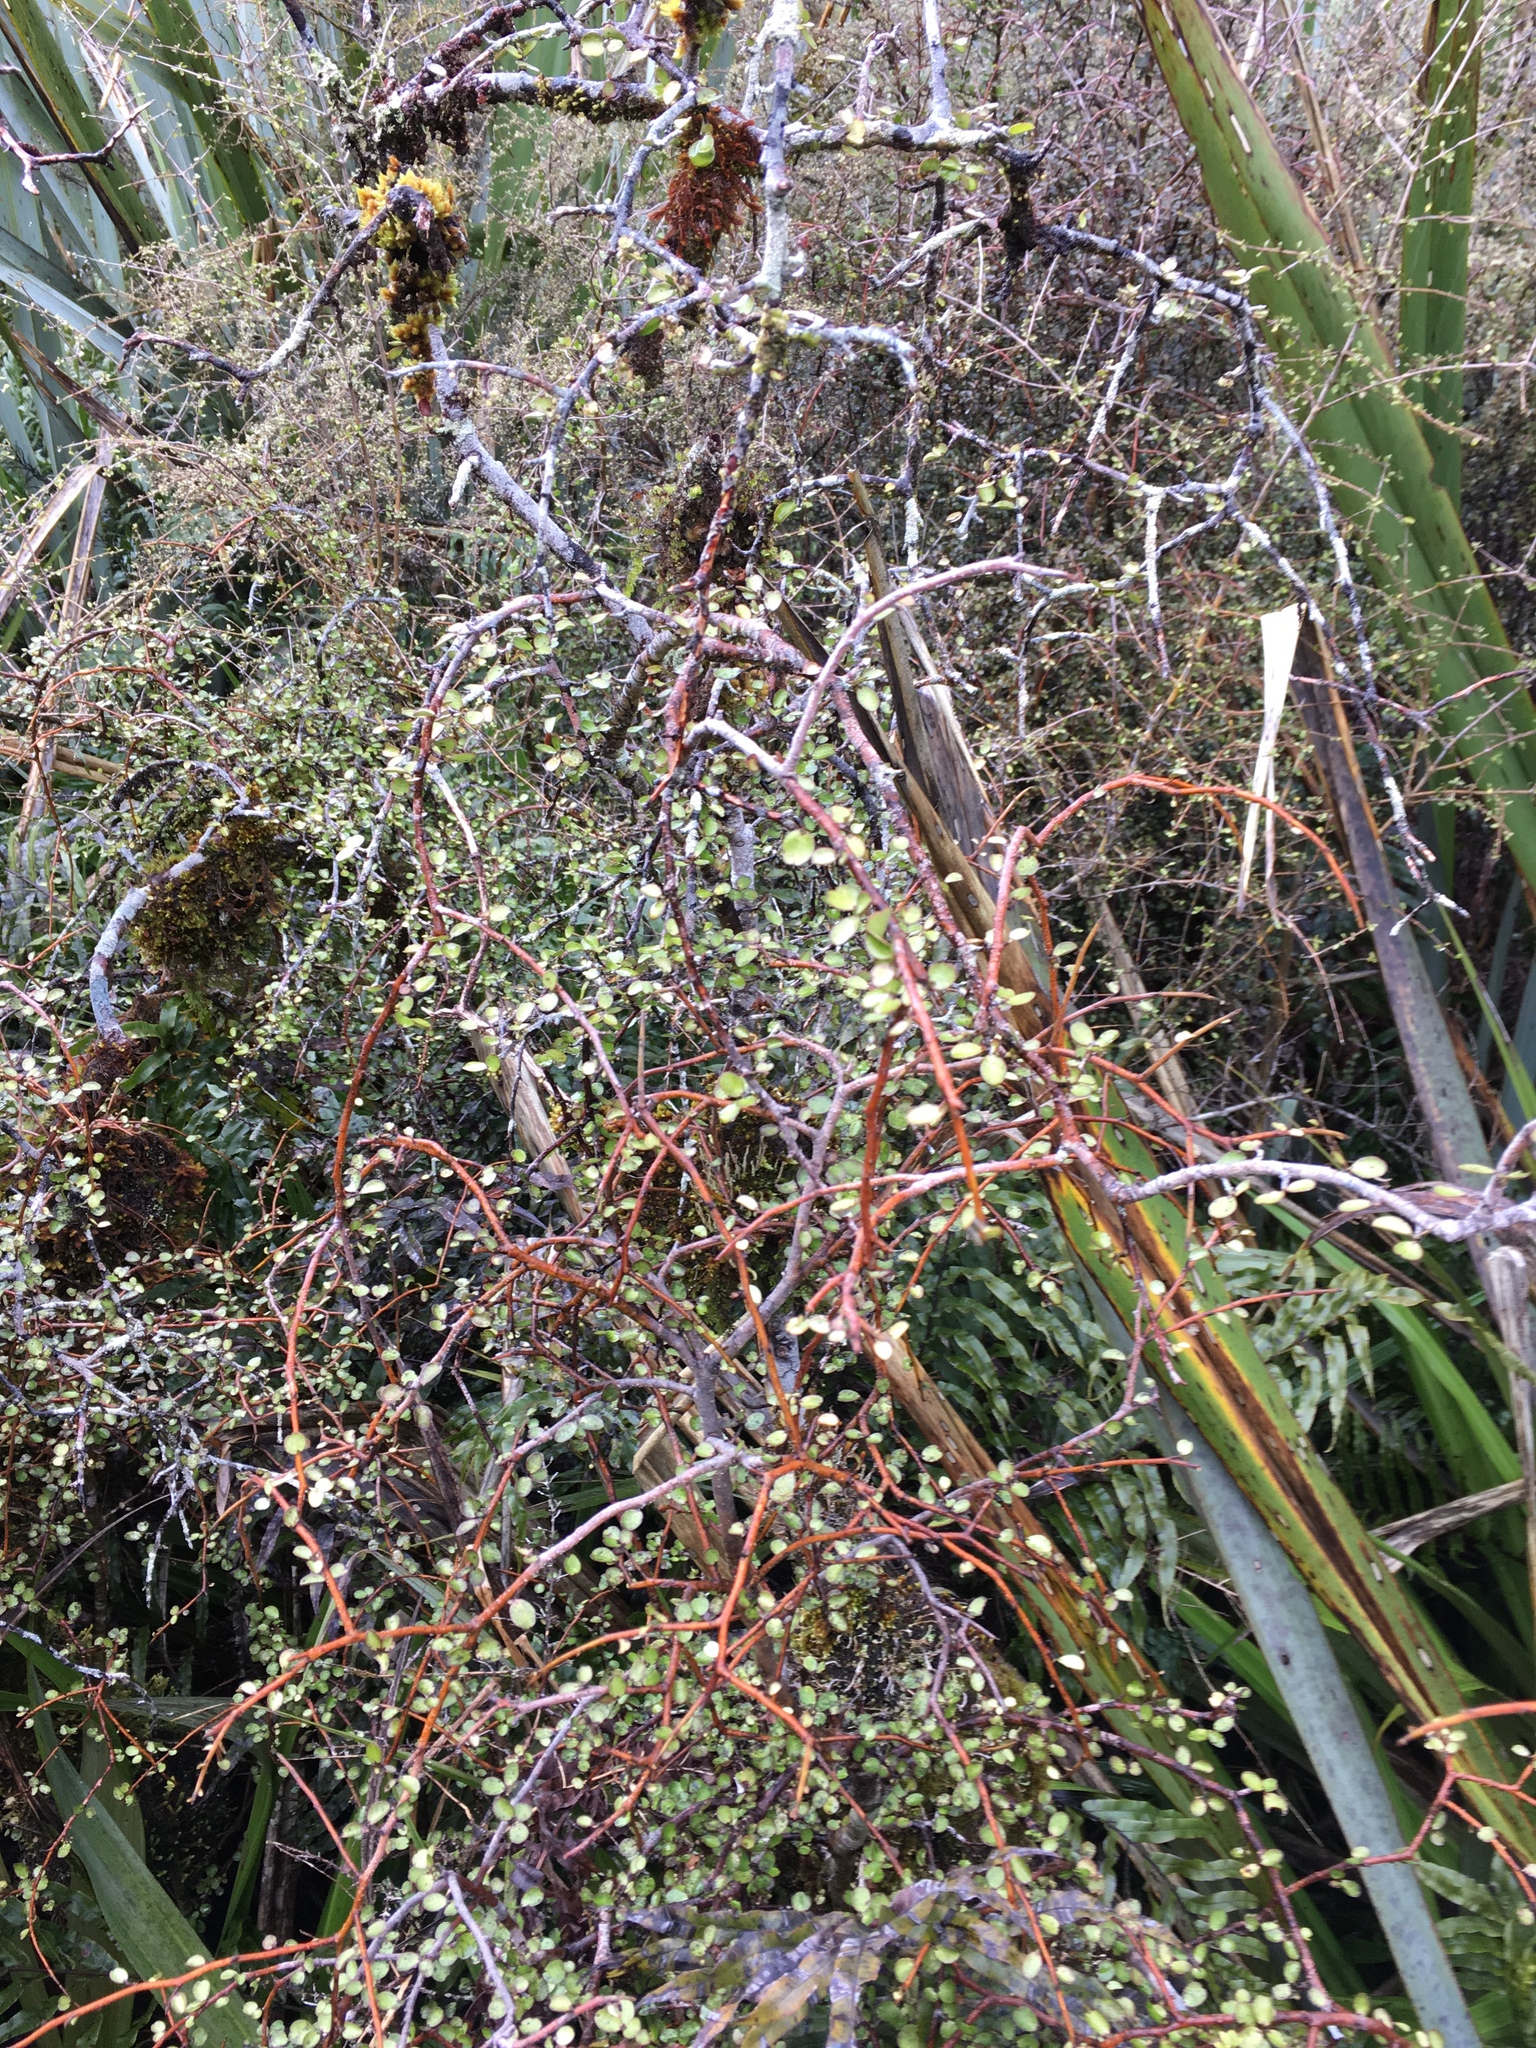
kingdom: Plantae
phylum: Tracheophyta
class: Magnoliopsida
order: Ericales
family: Primulaceae
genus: Myrsine
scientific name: Myrsine divaricata
